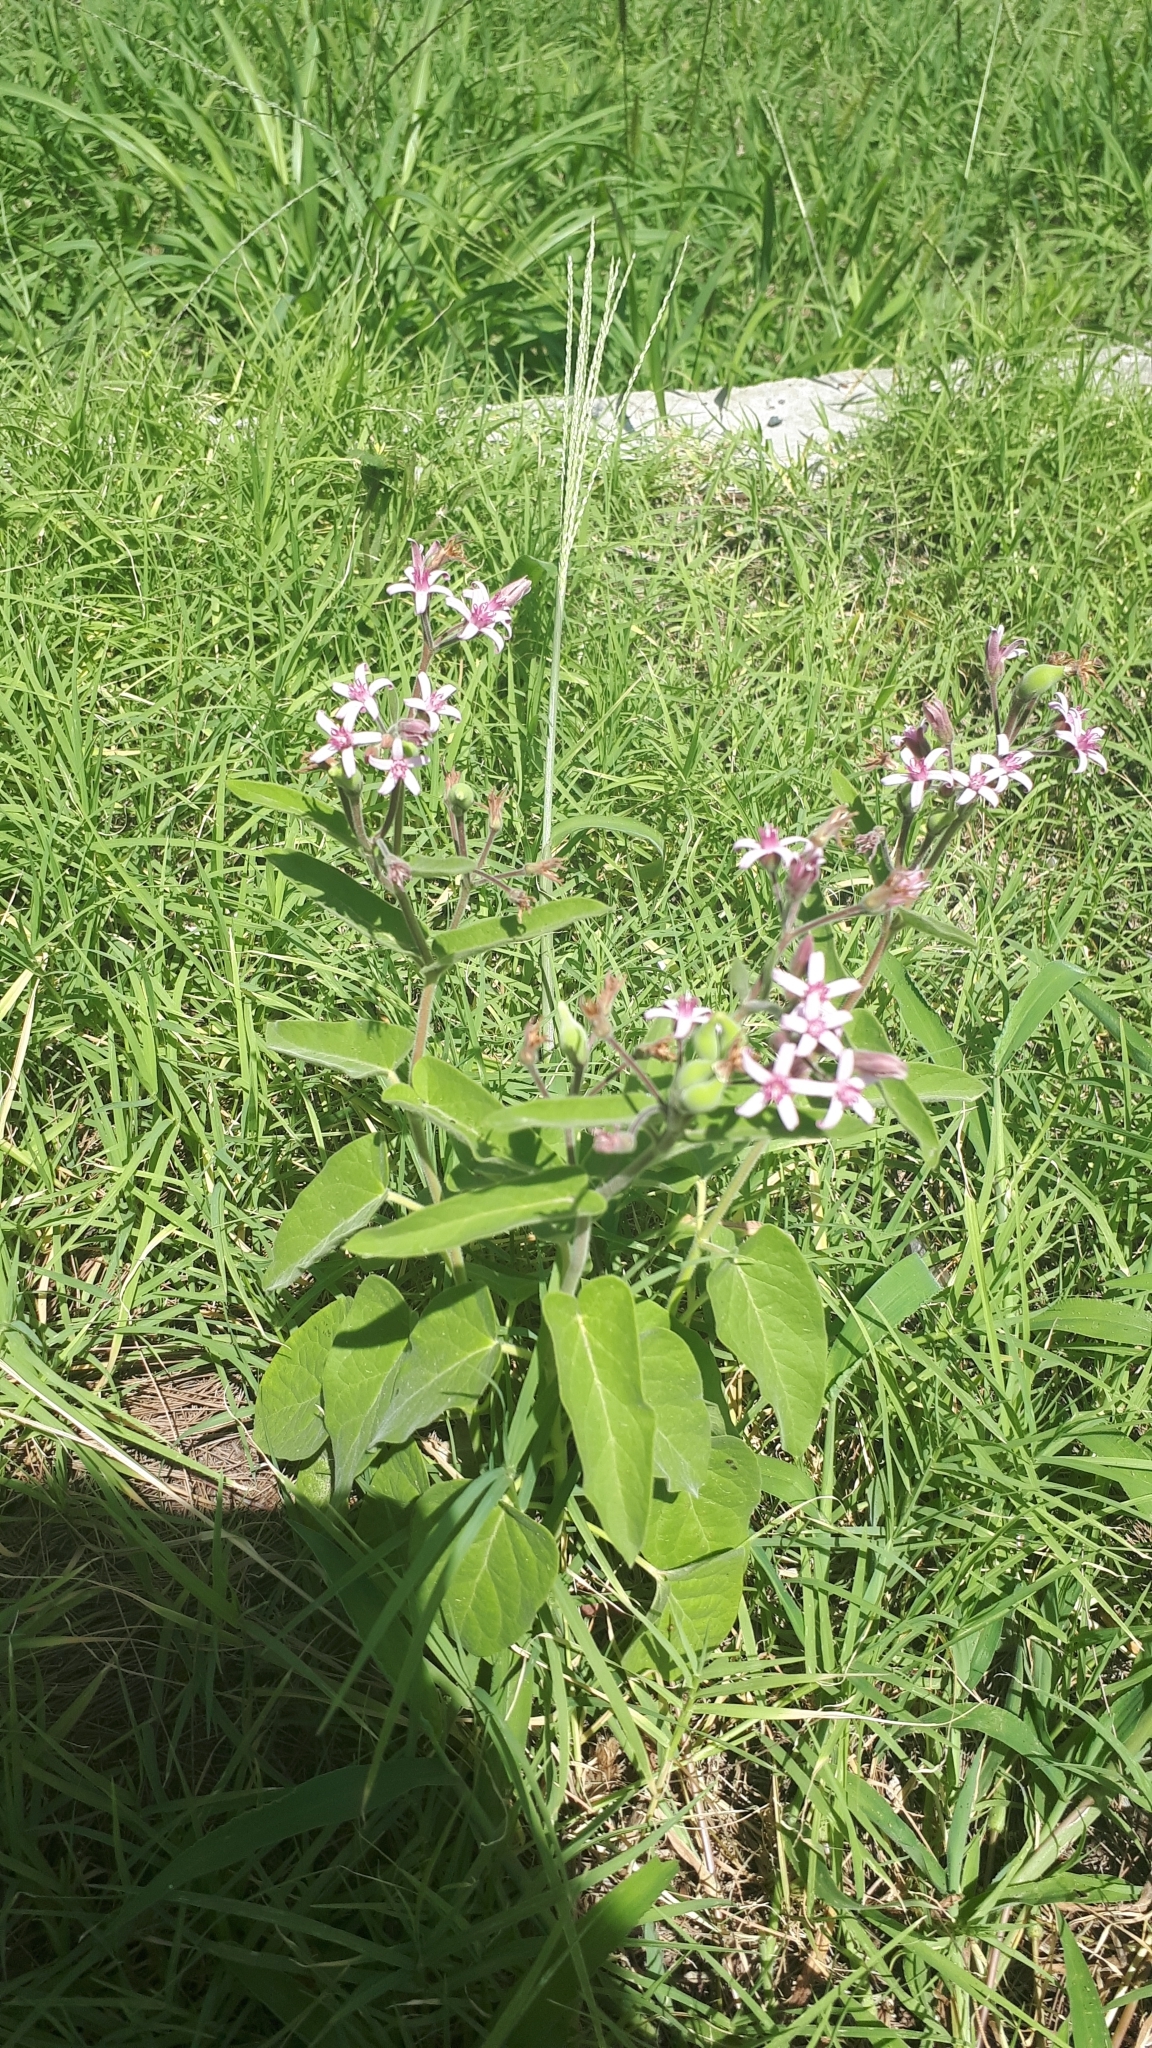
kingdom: Plantae
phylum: Tracheophyta
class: Magnoliopsida
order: Gentianales
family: Apocynaceae
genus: Oxypetalum
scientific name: Oxypetalum solanoides
